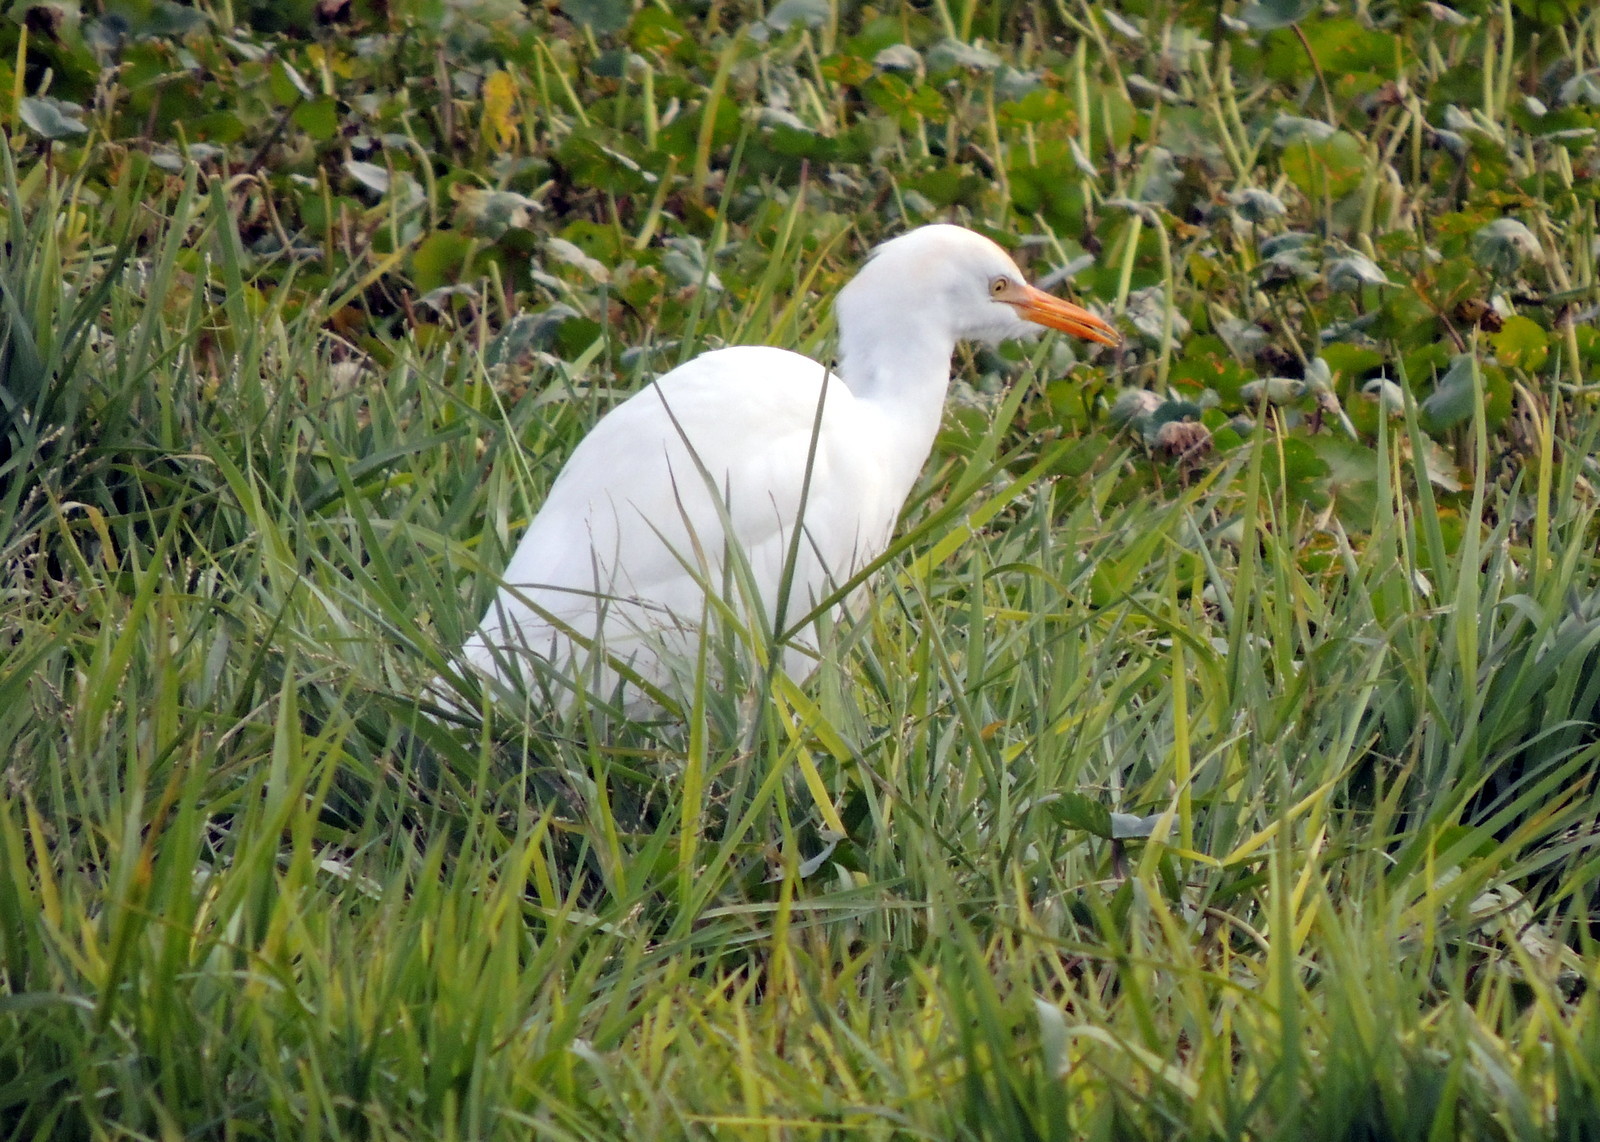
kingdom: Animalia
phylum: Chordata
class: Aves
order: Pelecaniformes
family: Ardeidae
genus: Bubulcus
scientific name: Bubulcus ibis
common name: Cattle egret
